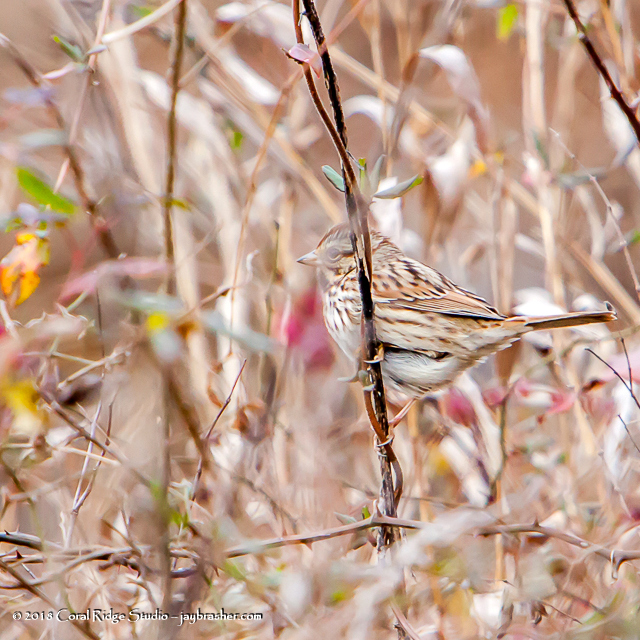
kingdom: Animalia
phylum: Chordata
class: Aves
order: Passeriformes
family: Passerellidae
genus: Melospiza
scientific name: Melospiza melodia
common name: Song sparrow
